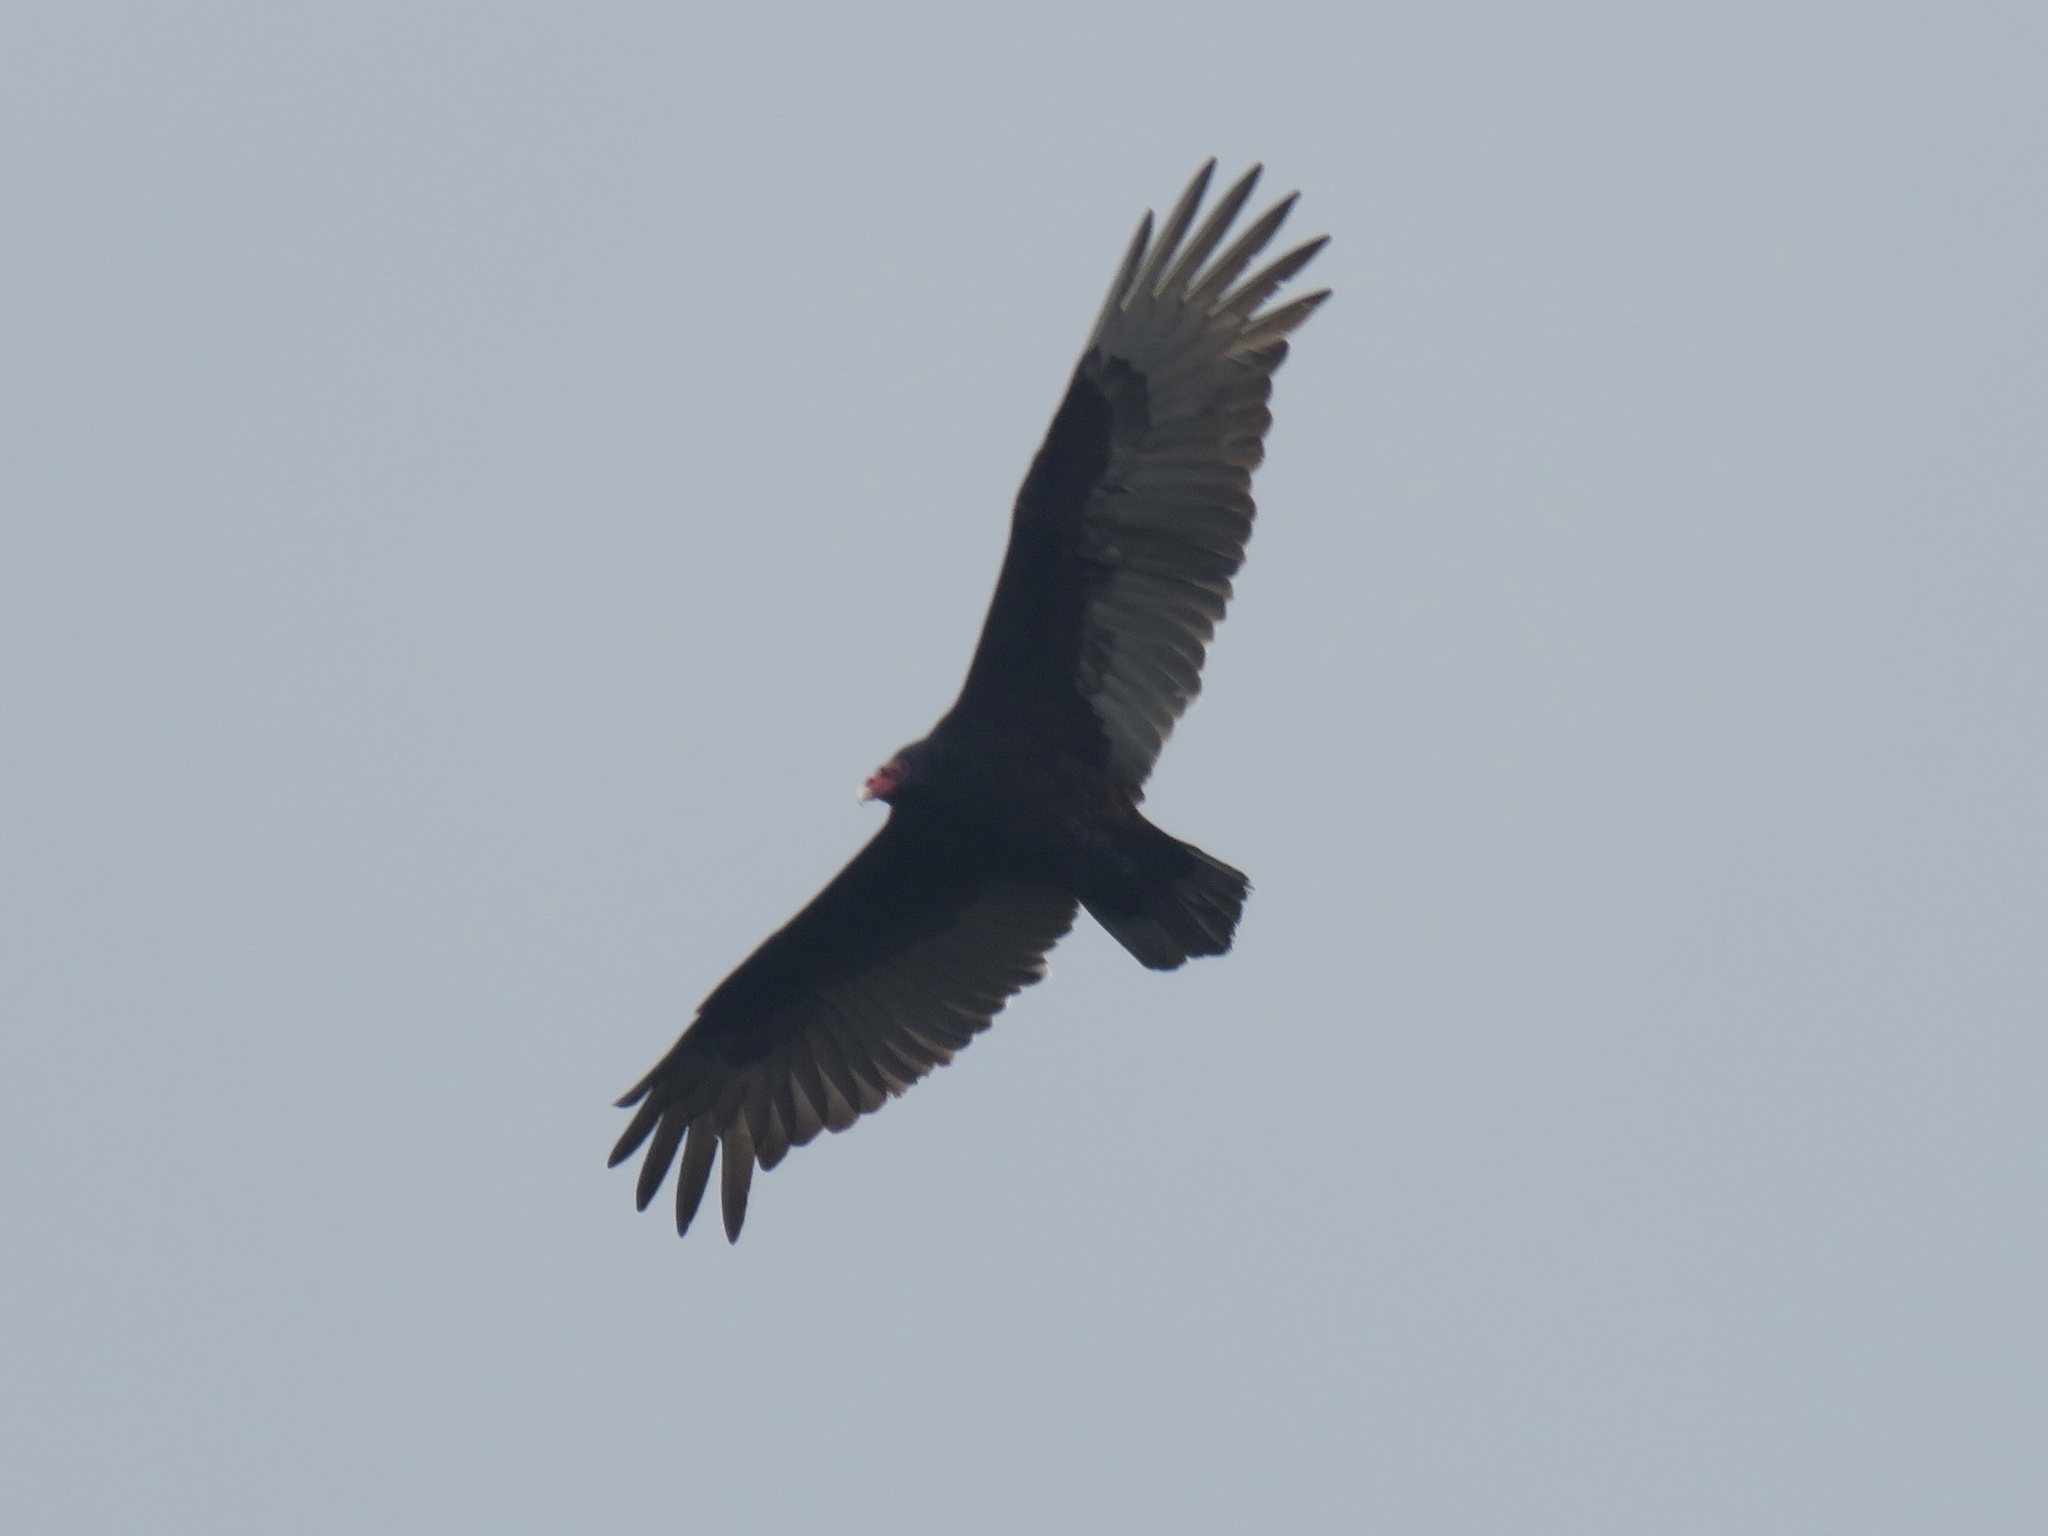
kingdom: Animalia
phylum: Chordata
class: Aves
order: Accipitriformes
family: Cathartidae
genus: Cathartes
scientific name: Cathartes aura
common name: Turkey vulture
